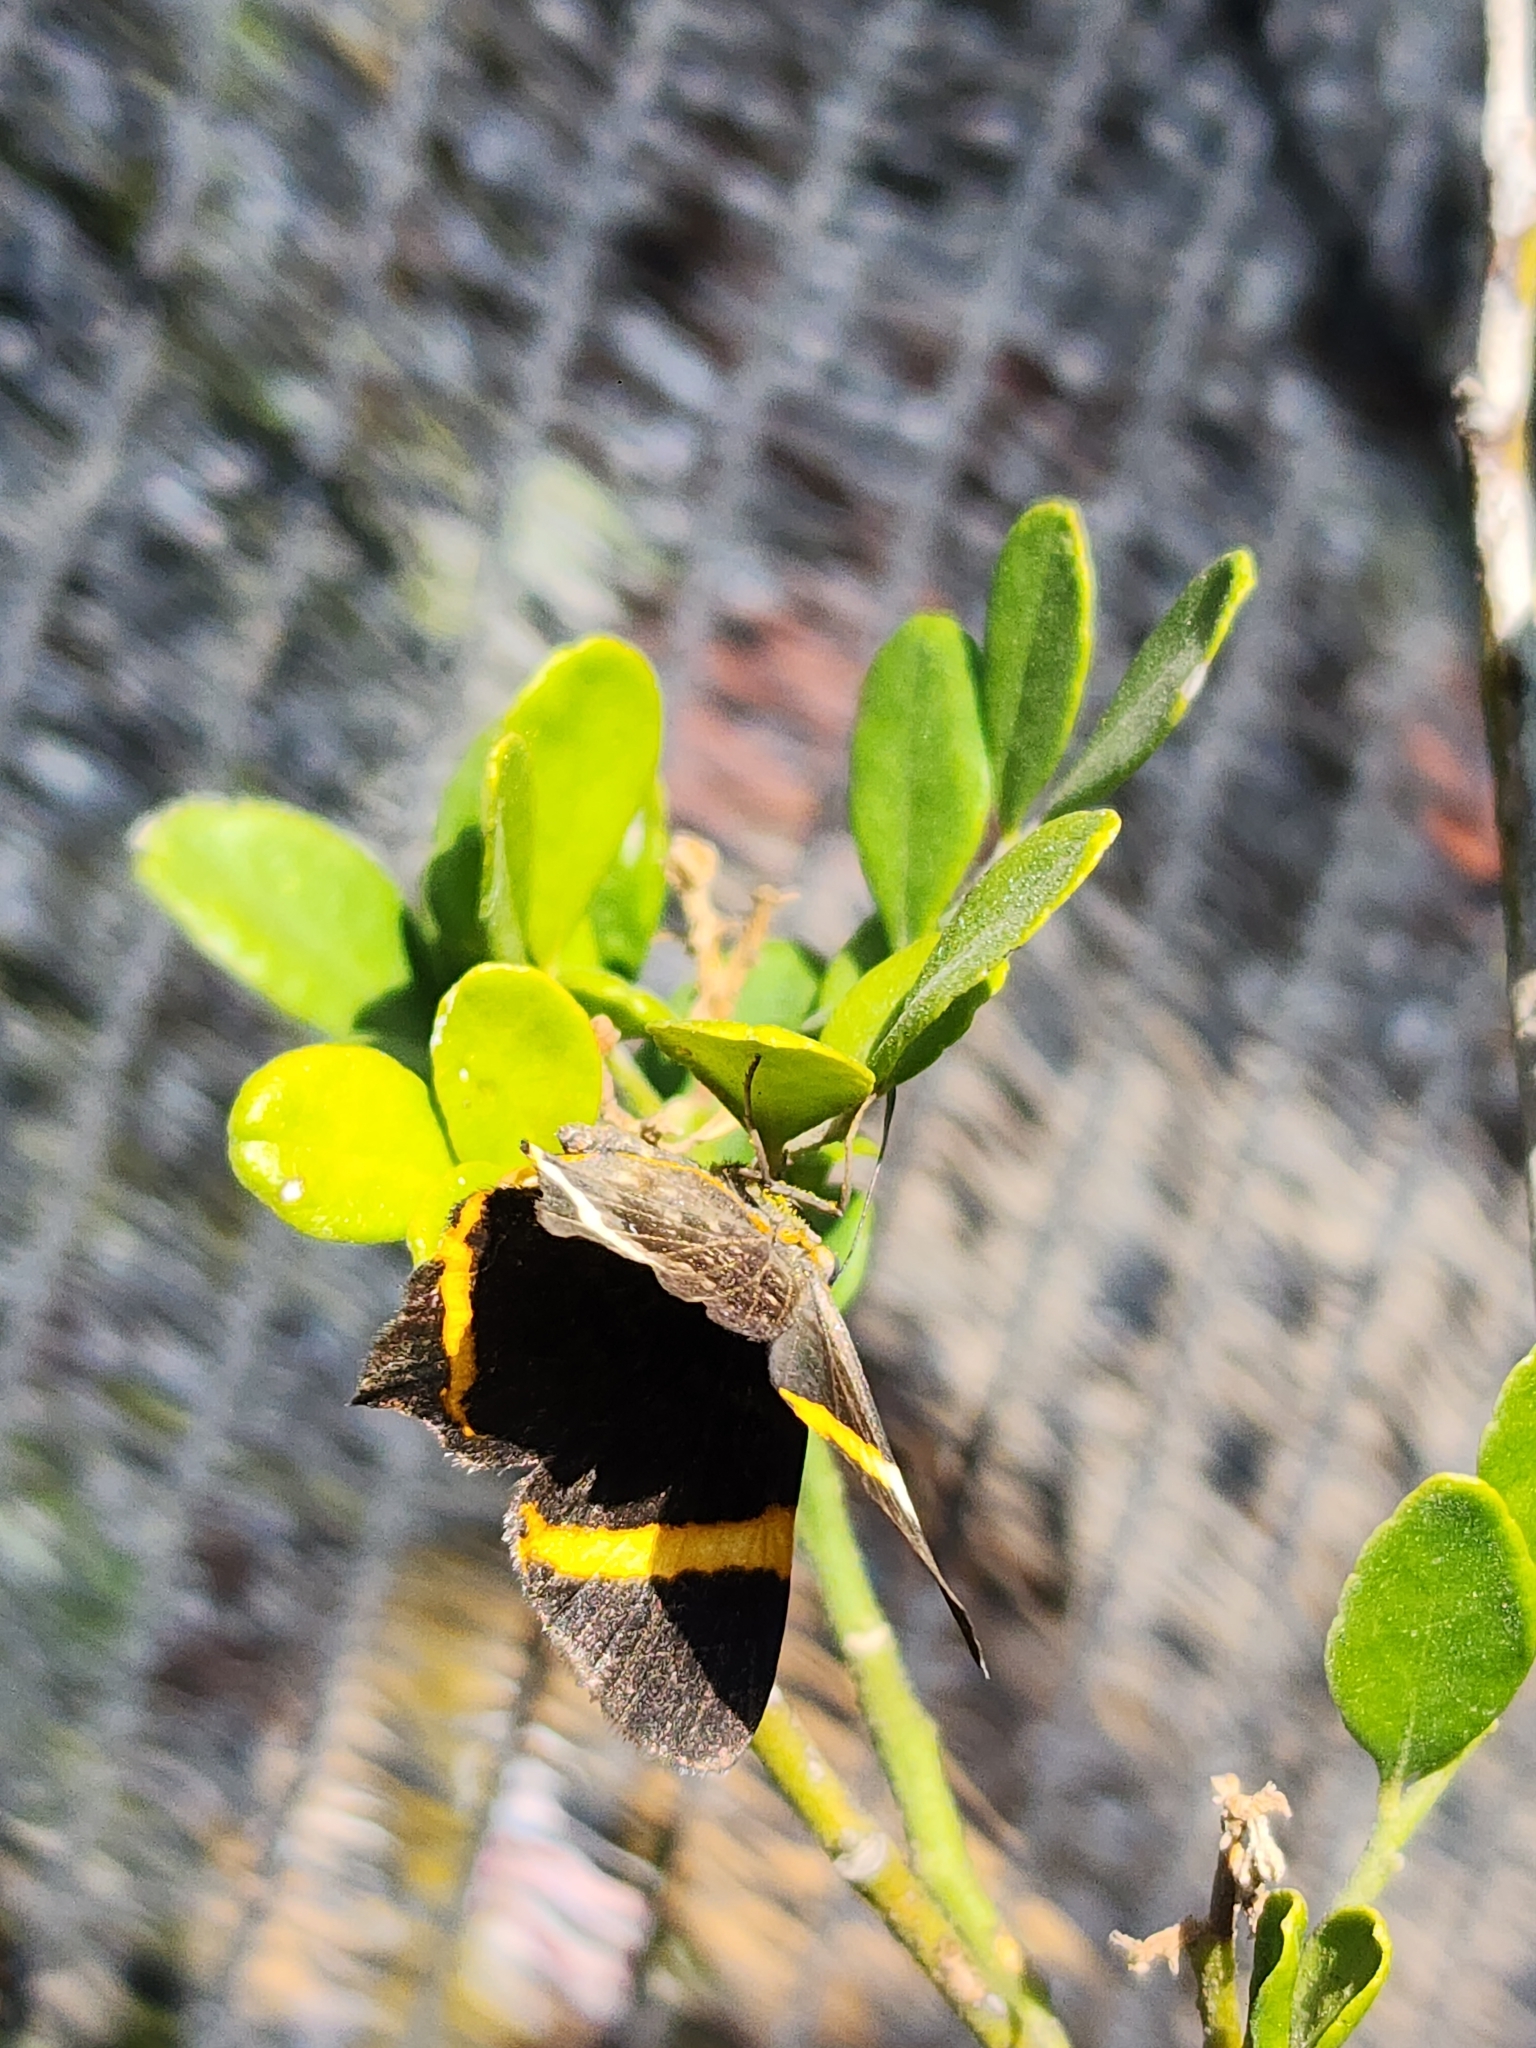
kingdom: Animalia
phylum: Arthropoda
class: Insecta
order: Lepidoptera
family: Riodinidae
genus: Riodina
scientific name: Riodina lysippoides
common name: Little dancer metalmark
